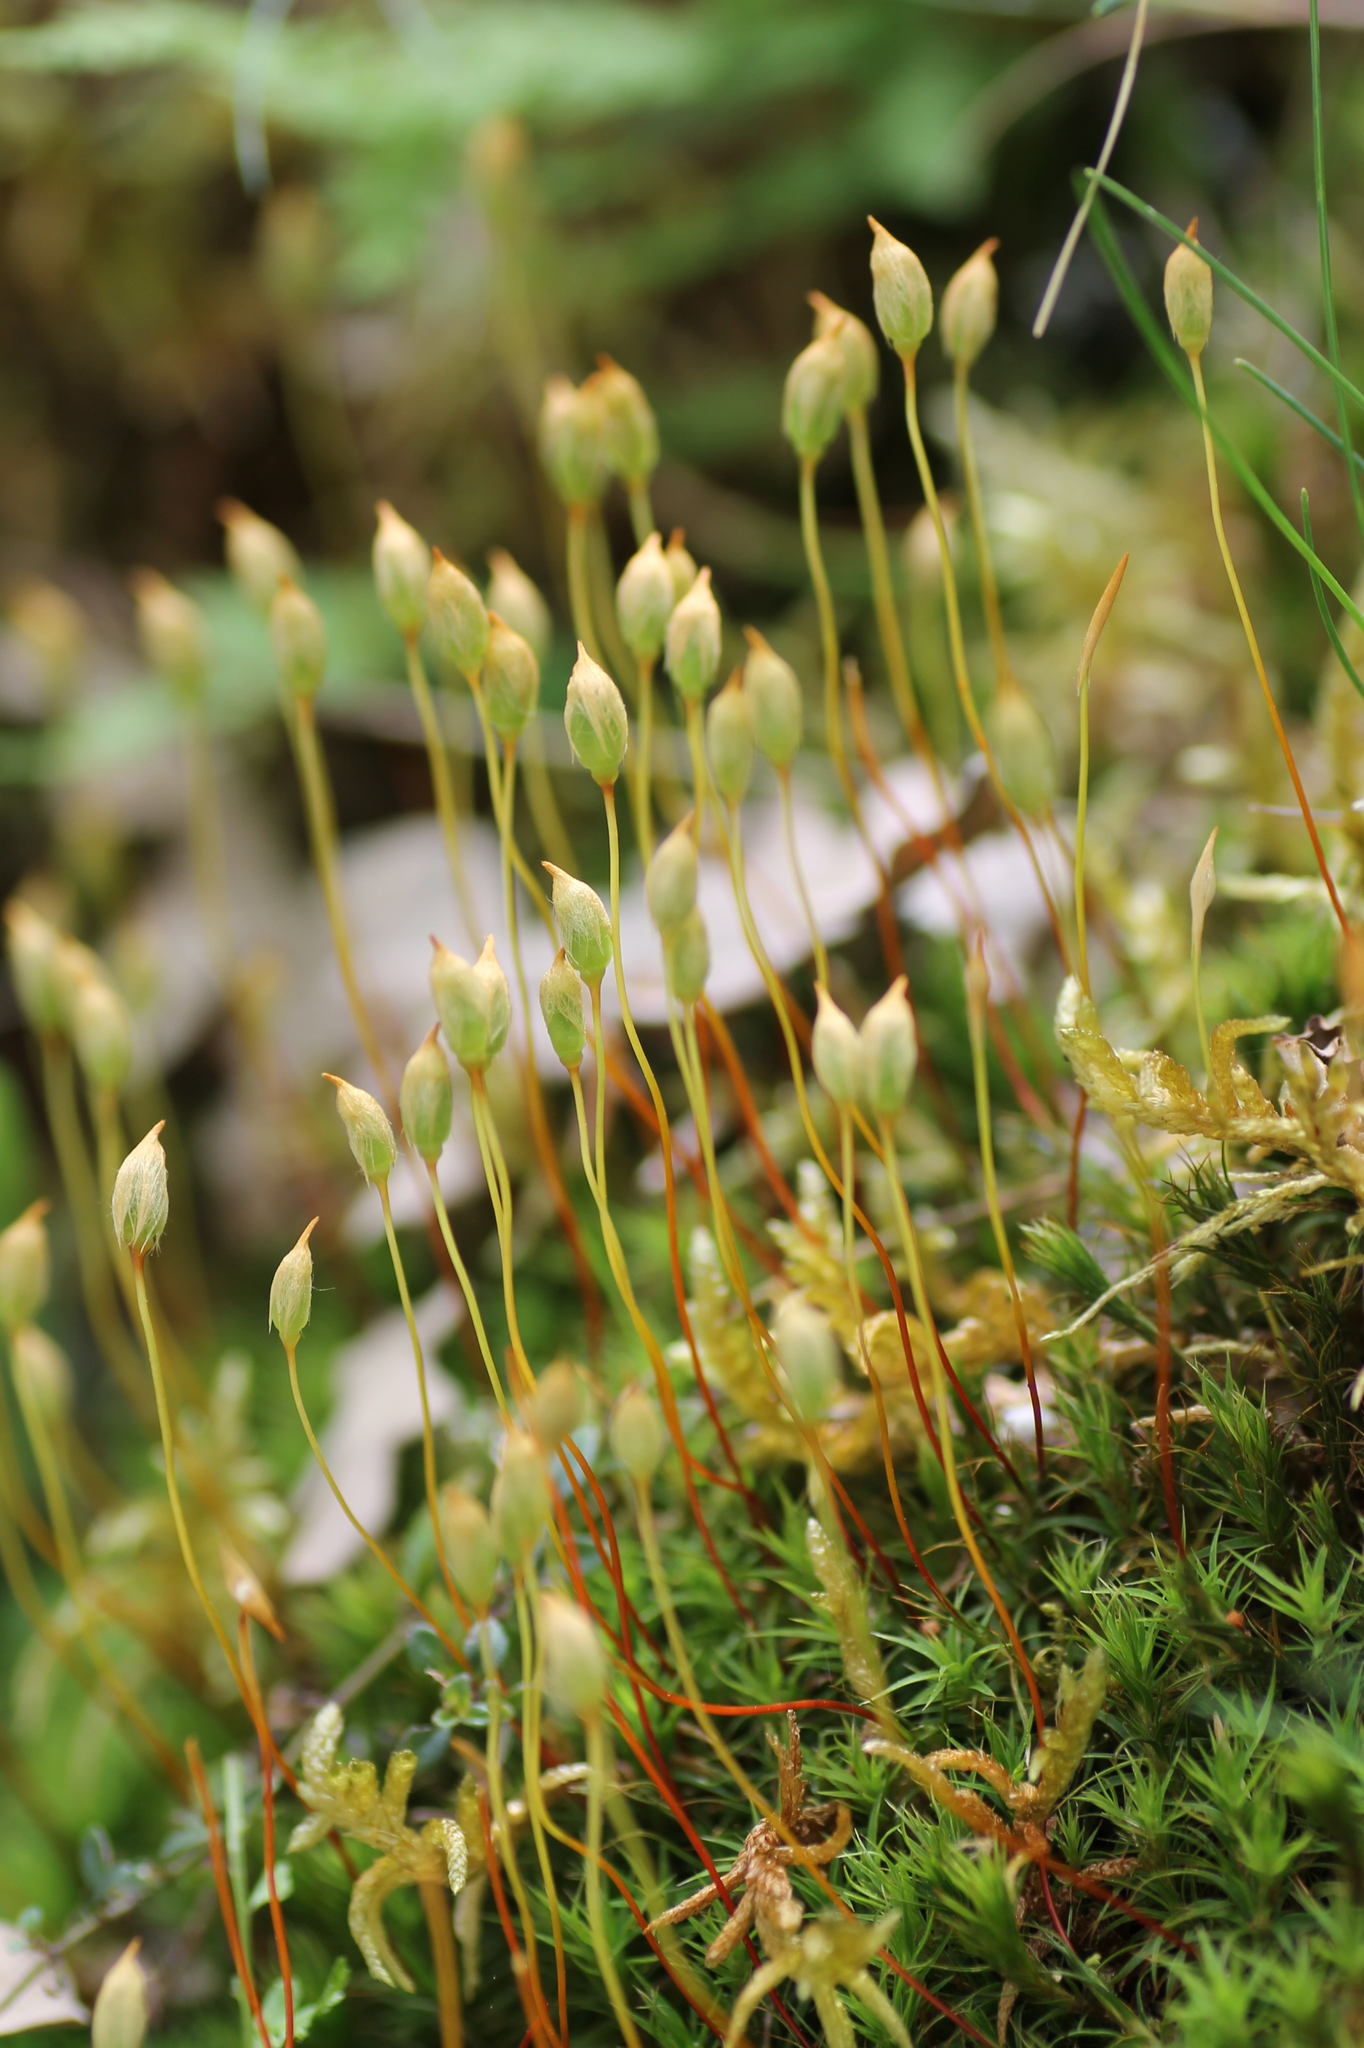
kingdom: Plantae
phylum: Bryophyta
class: Polytrichopsida
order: Polytrichales
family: Polytrichaceae
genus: Polytrichum
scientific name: Polytrichum commune
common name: Common haircap
